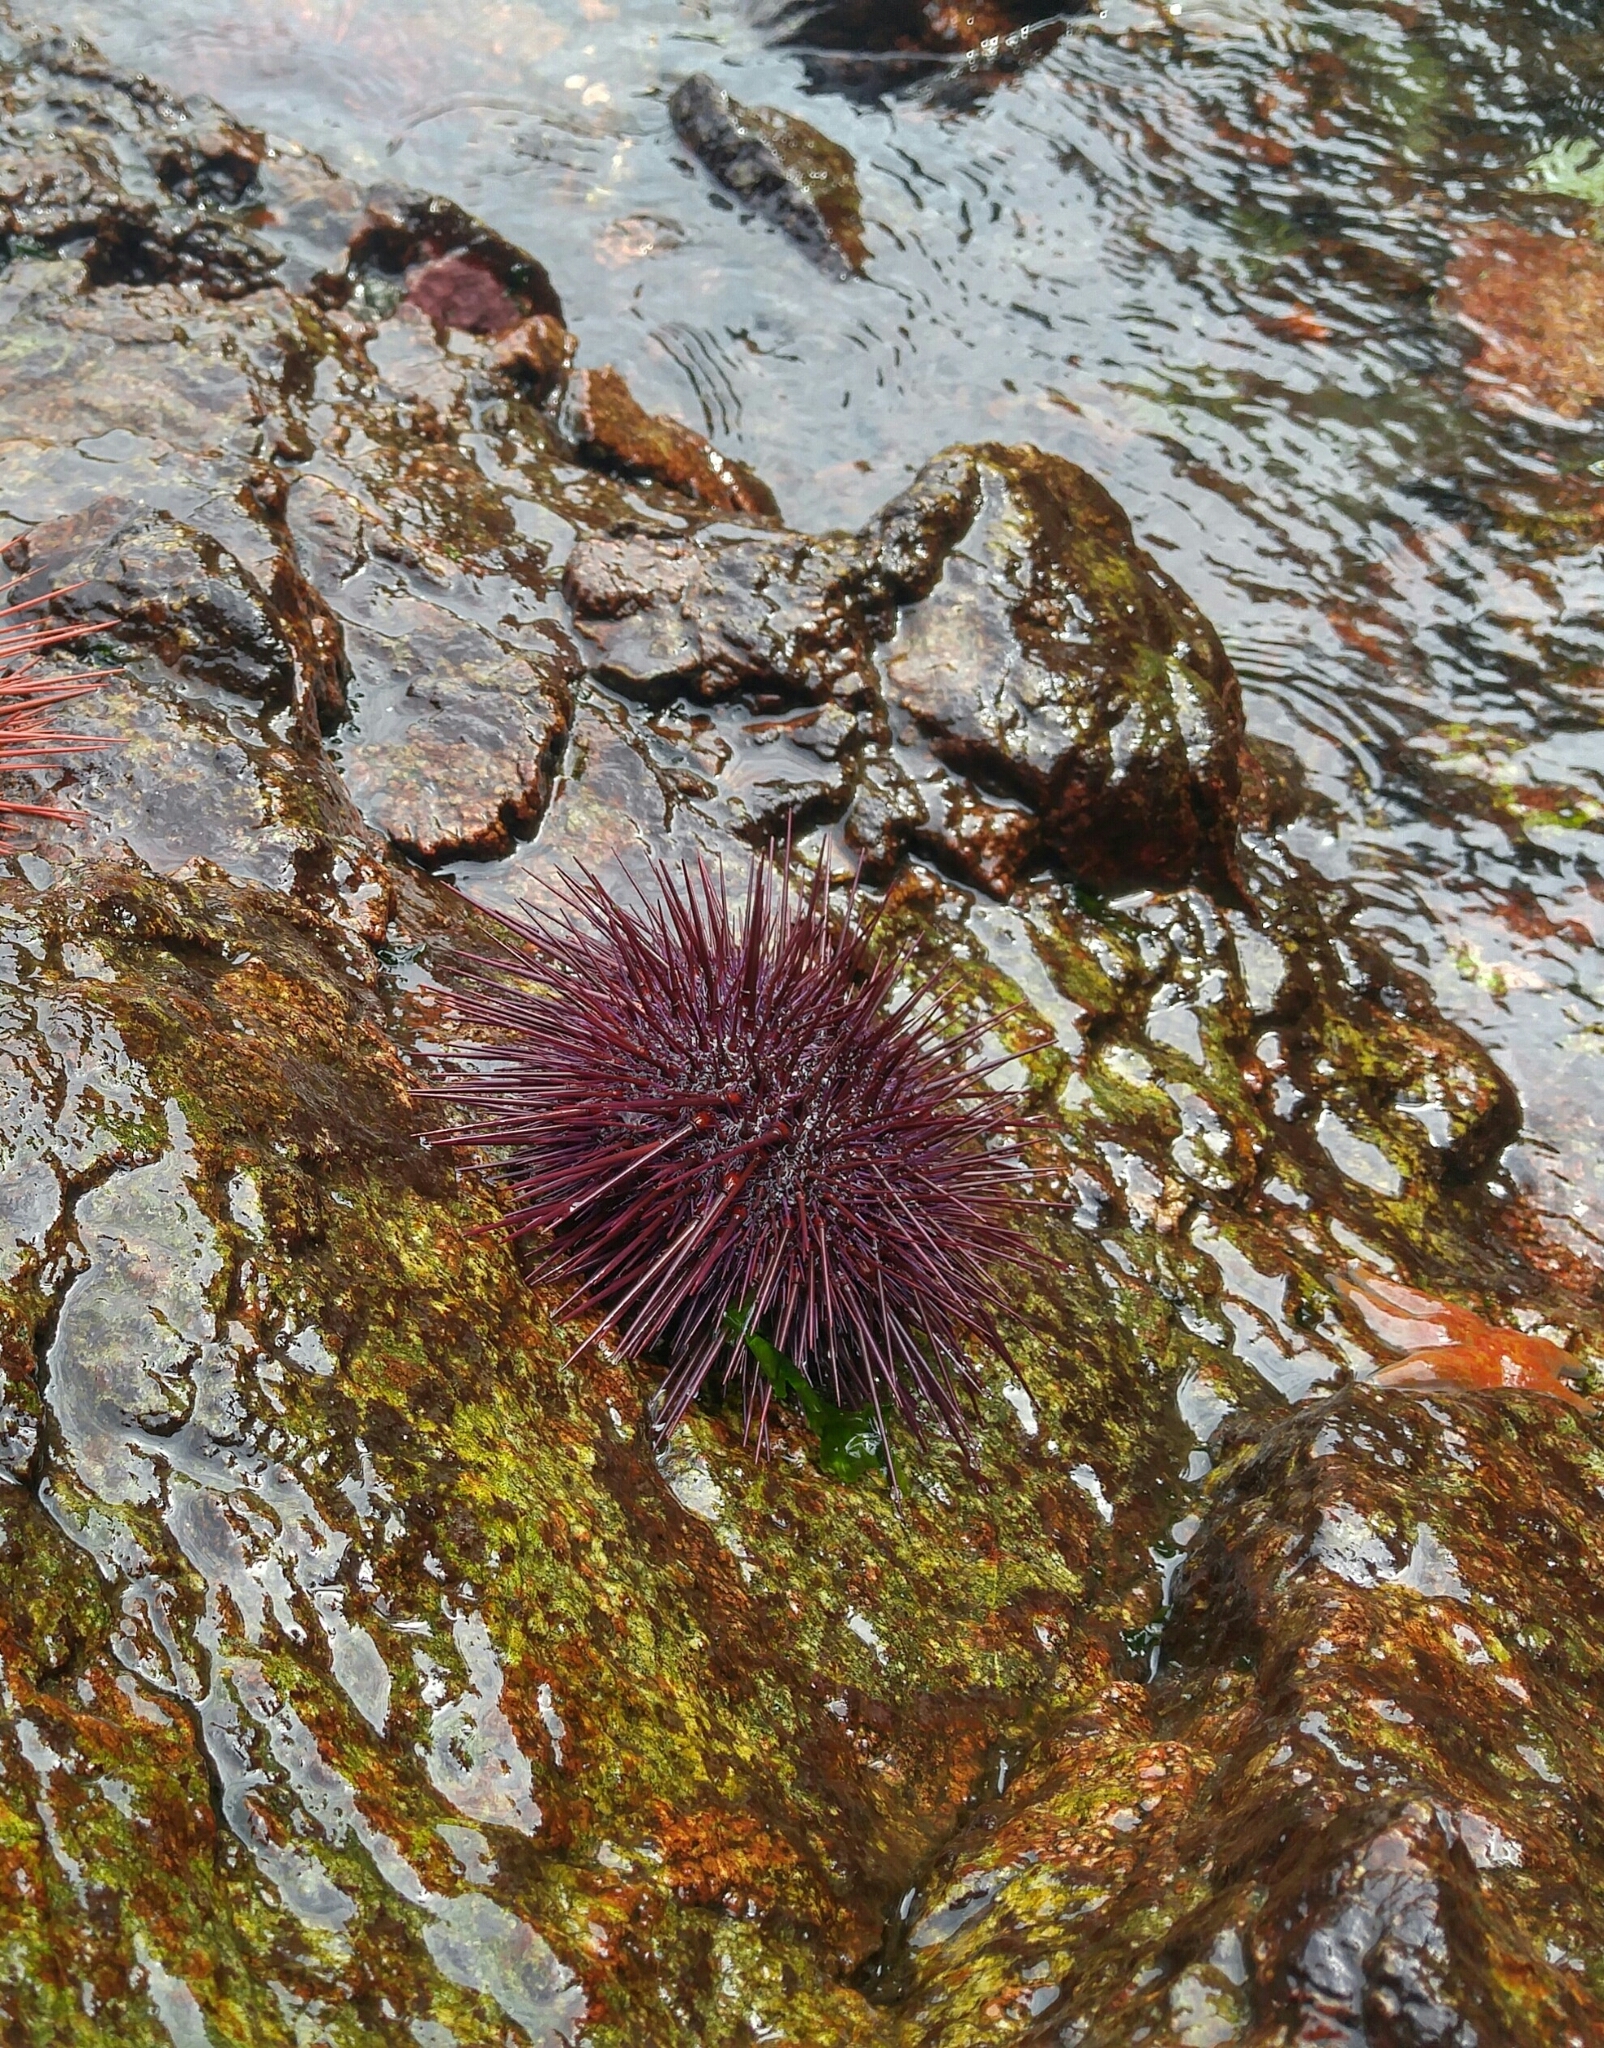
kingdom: Animalia
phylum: Echinodermata
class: Echinoidea
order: Camarodonta
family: Strongylocentrotidae
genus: Mesocentrotus
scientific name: Mesocentrotus franciscanus
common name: Red sea urchin
